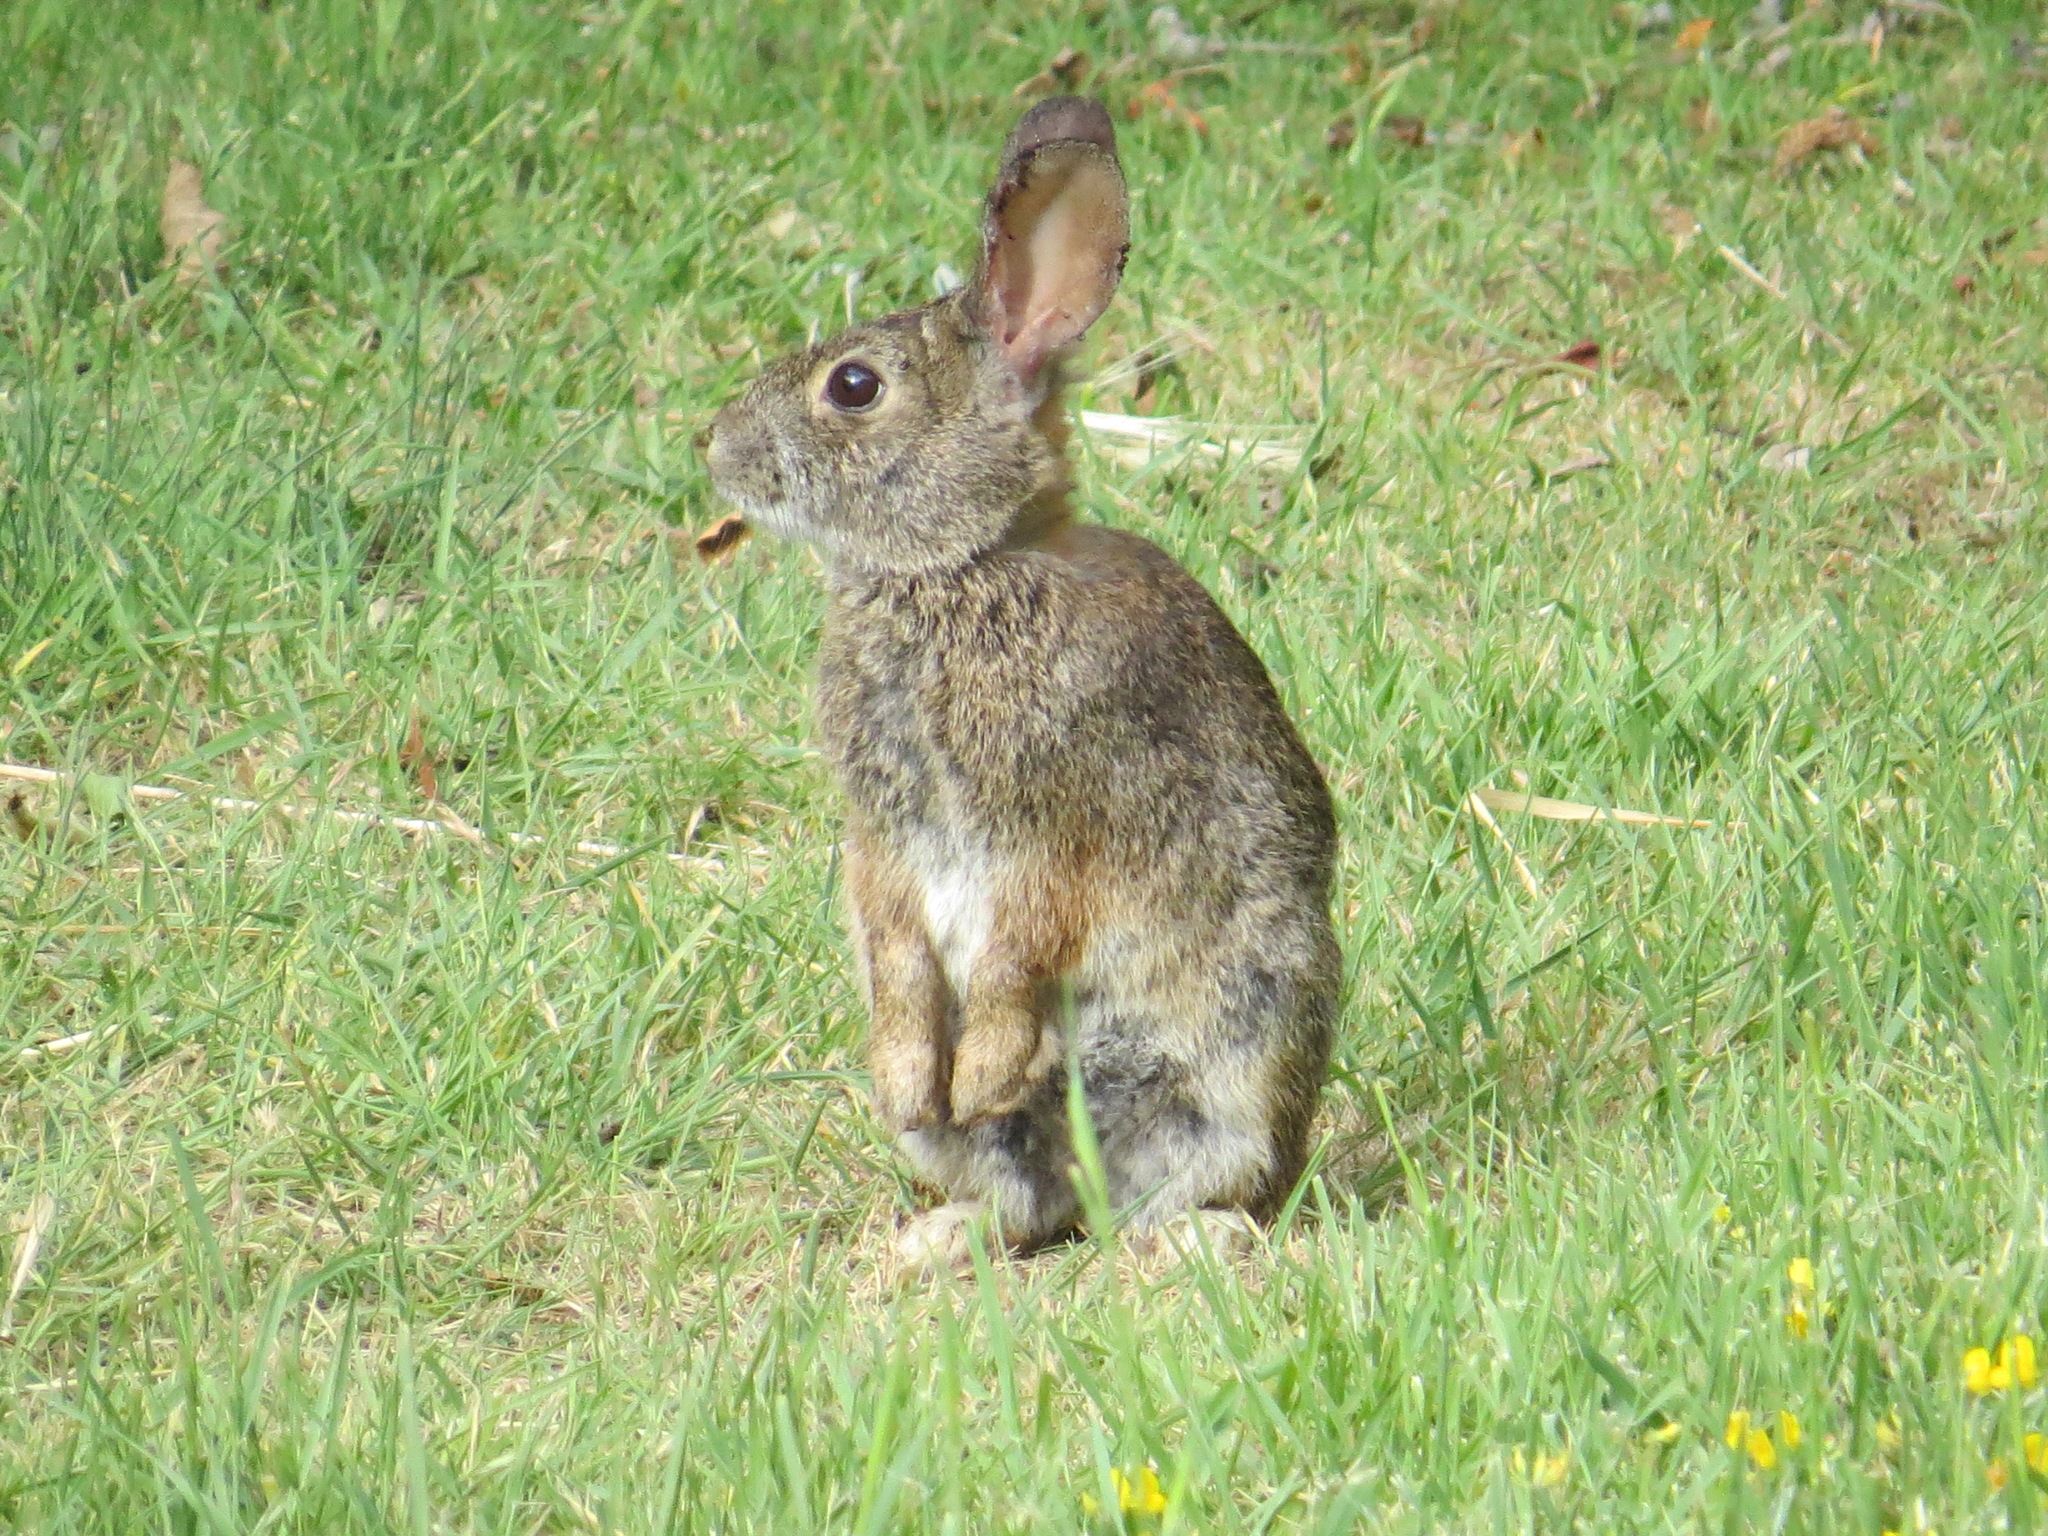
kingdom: Animalia
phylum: Chordata
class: Mammalia
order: Lagomorpha
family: Leporidae
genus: Sylvilagus
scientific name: Sylvilagus bachmani
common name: Brush rabbit
